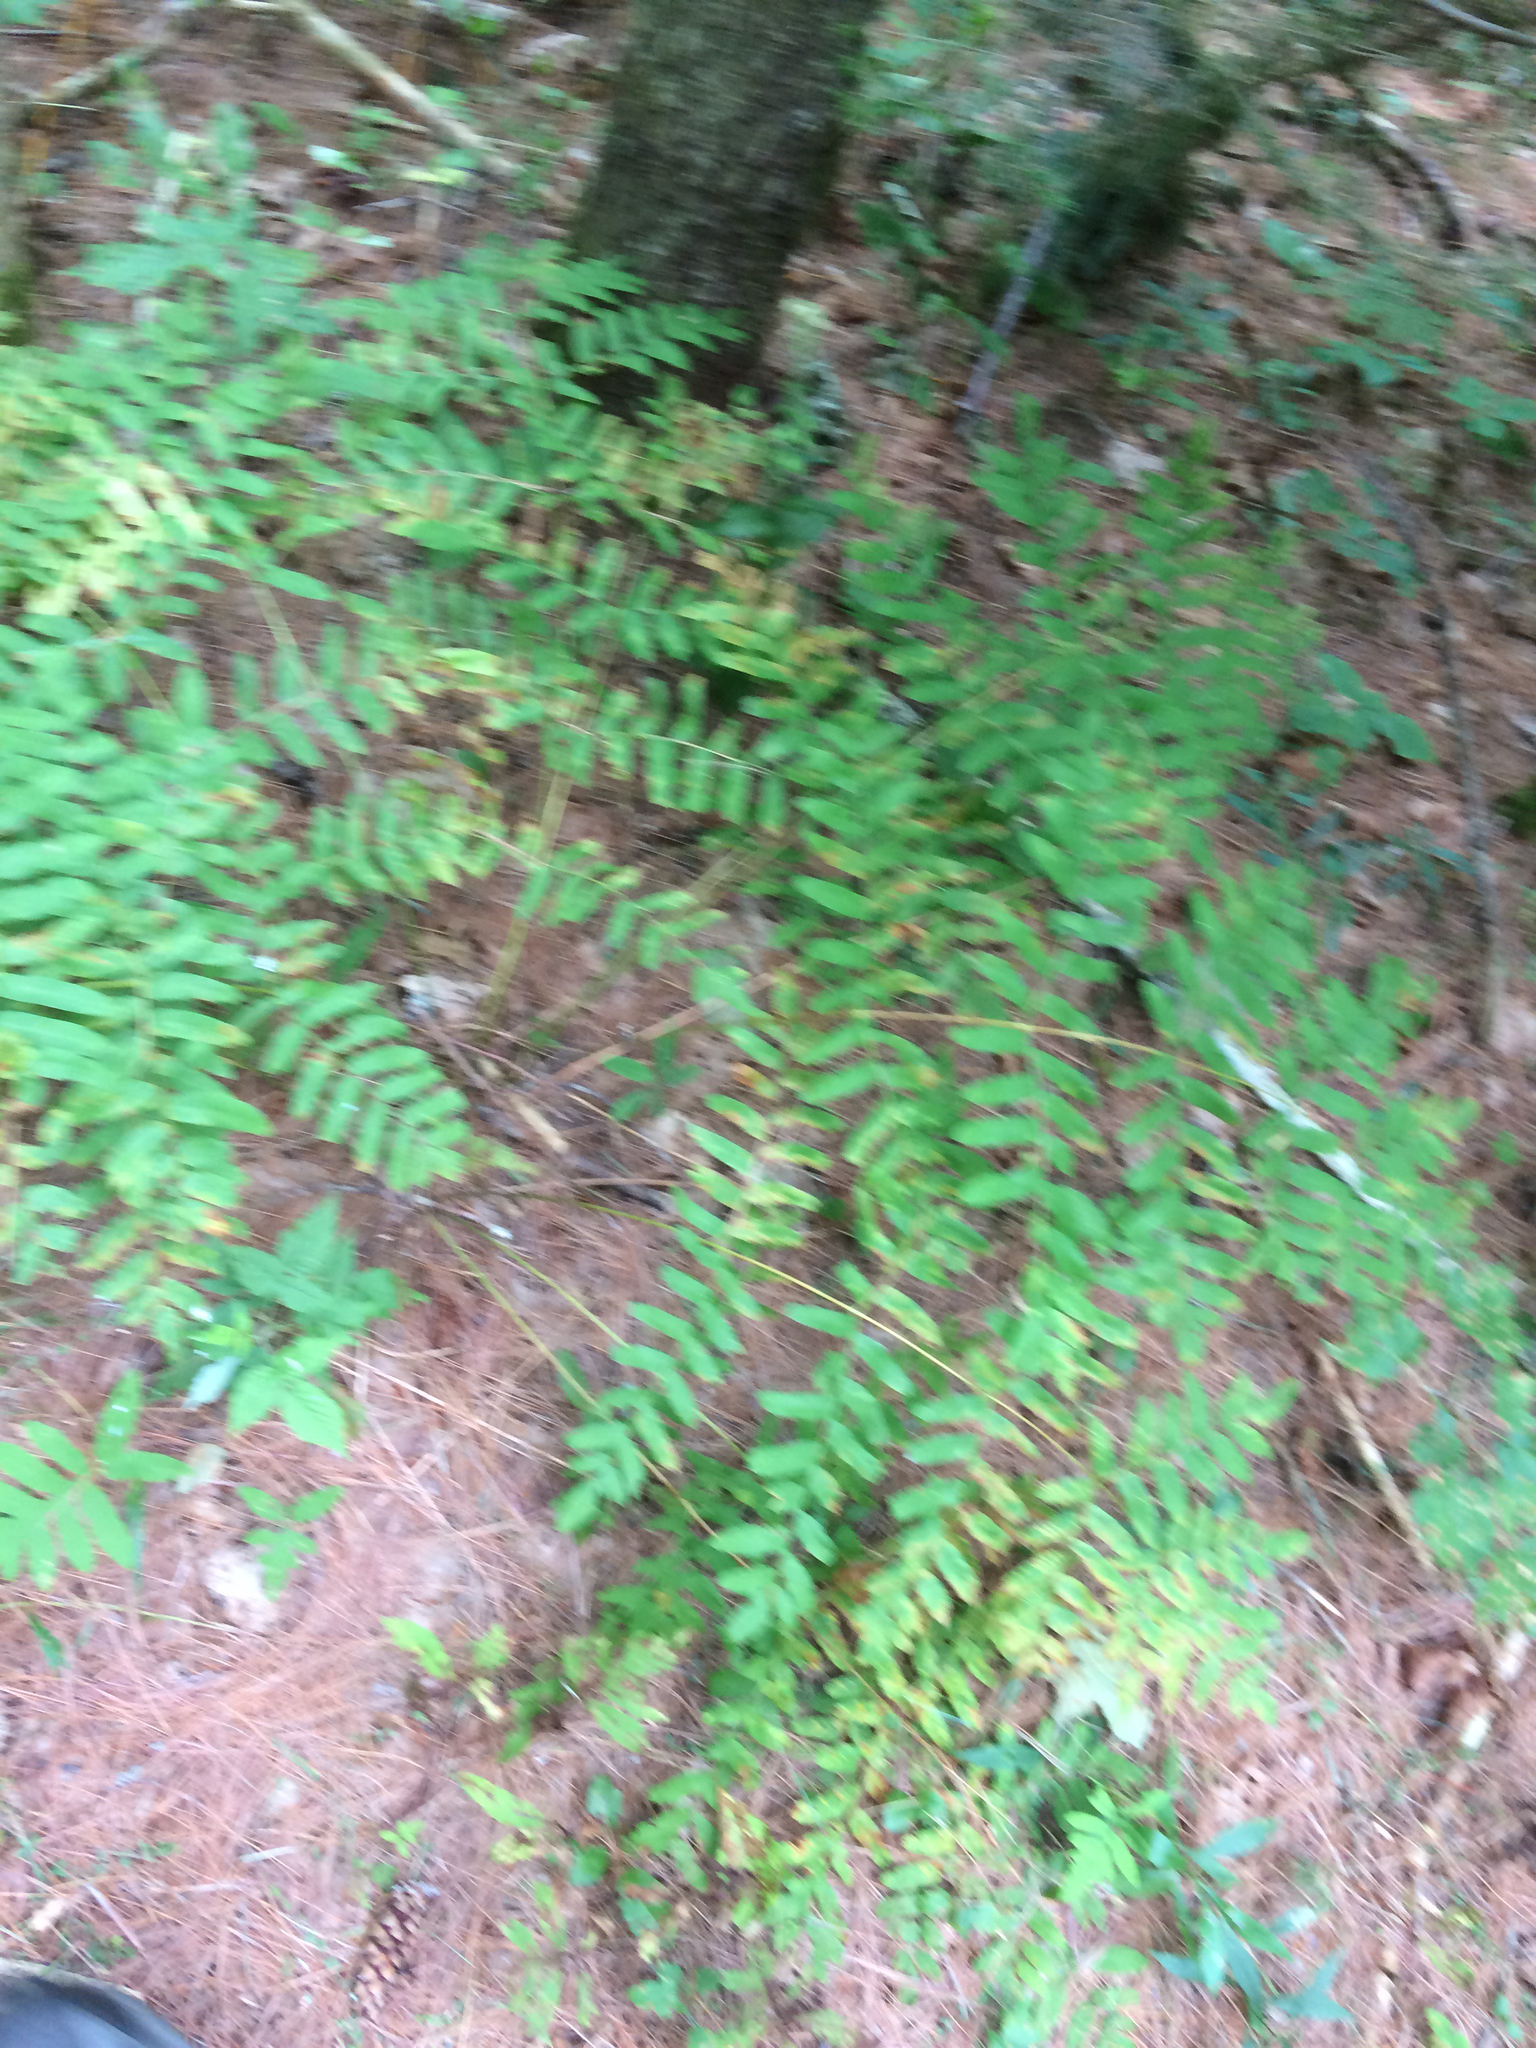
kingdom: Plantae
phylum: Tracheophyta
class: Polypodiopsida
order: Osmundales
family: Osmundaceae
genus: Osmunda
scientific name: Osmunda spectabilis
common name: American royal fern
